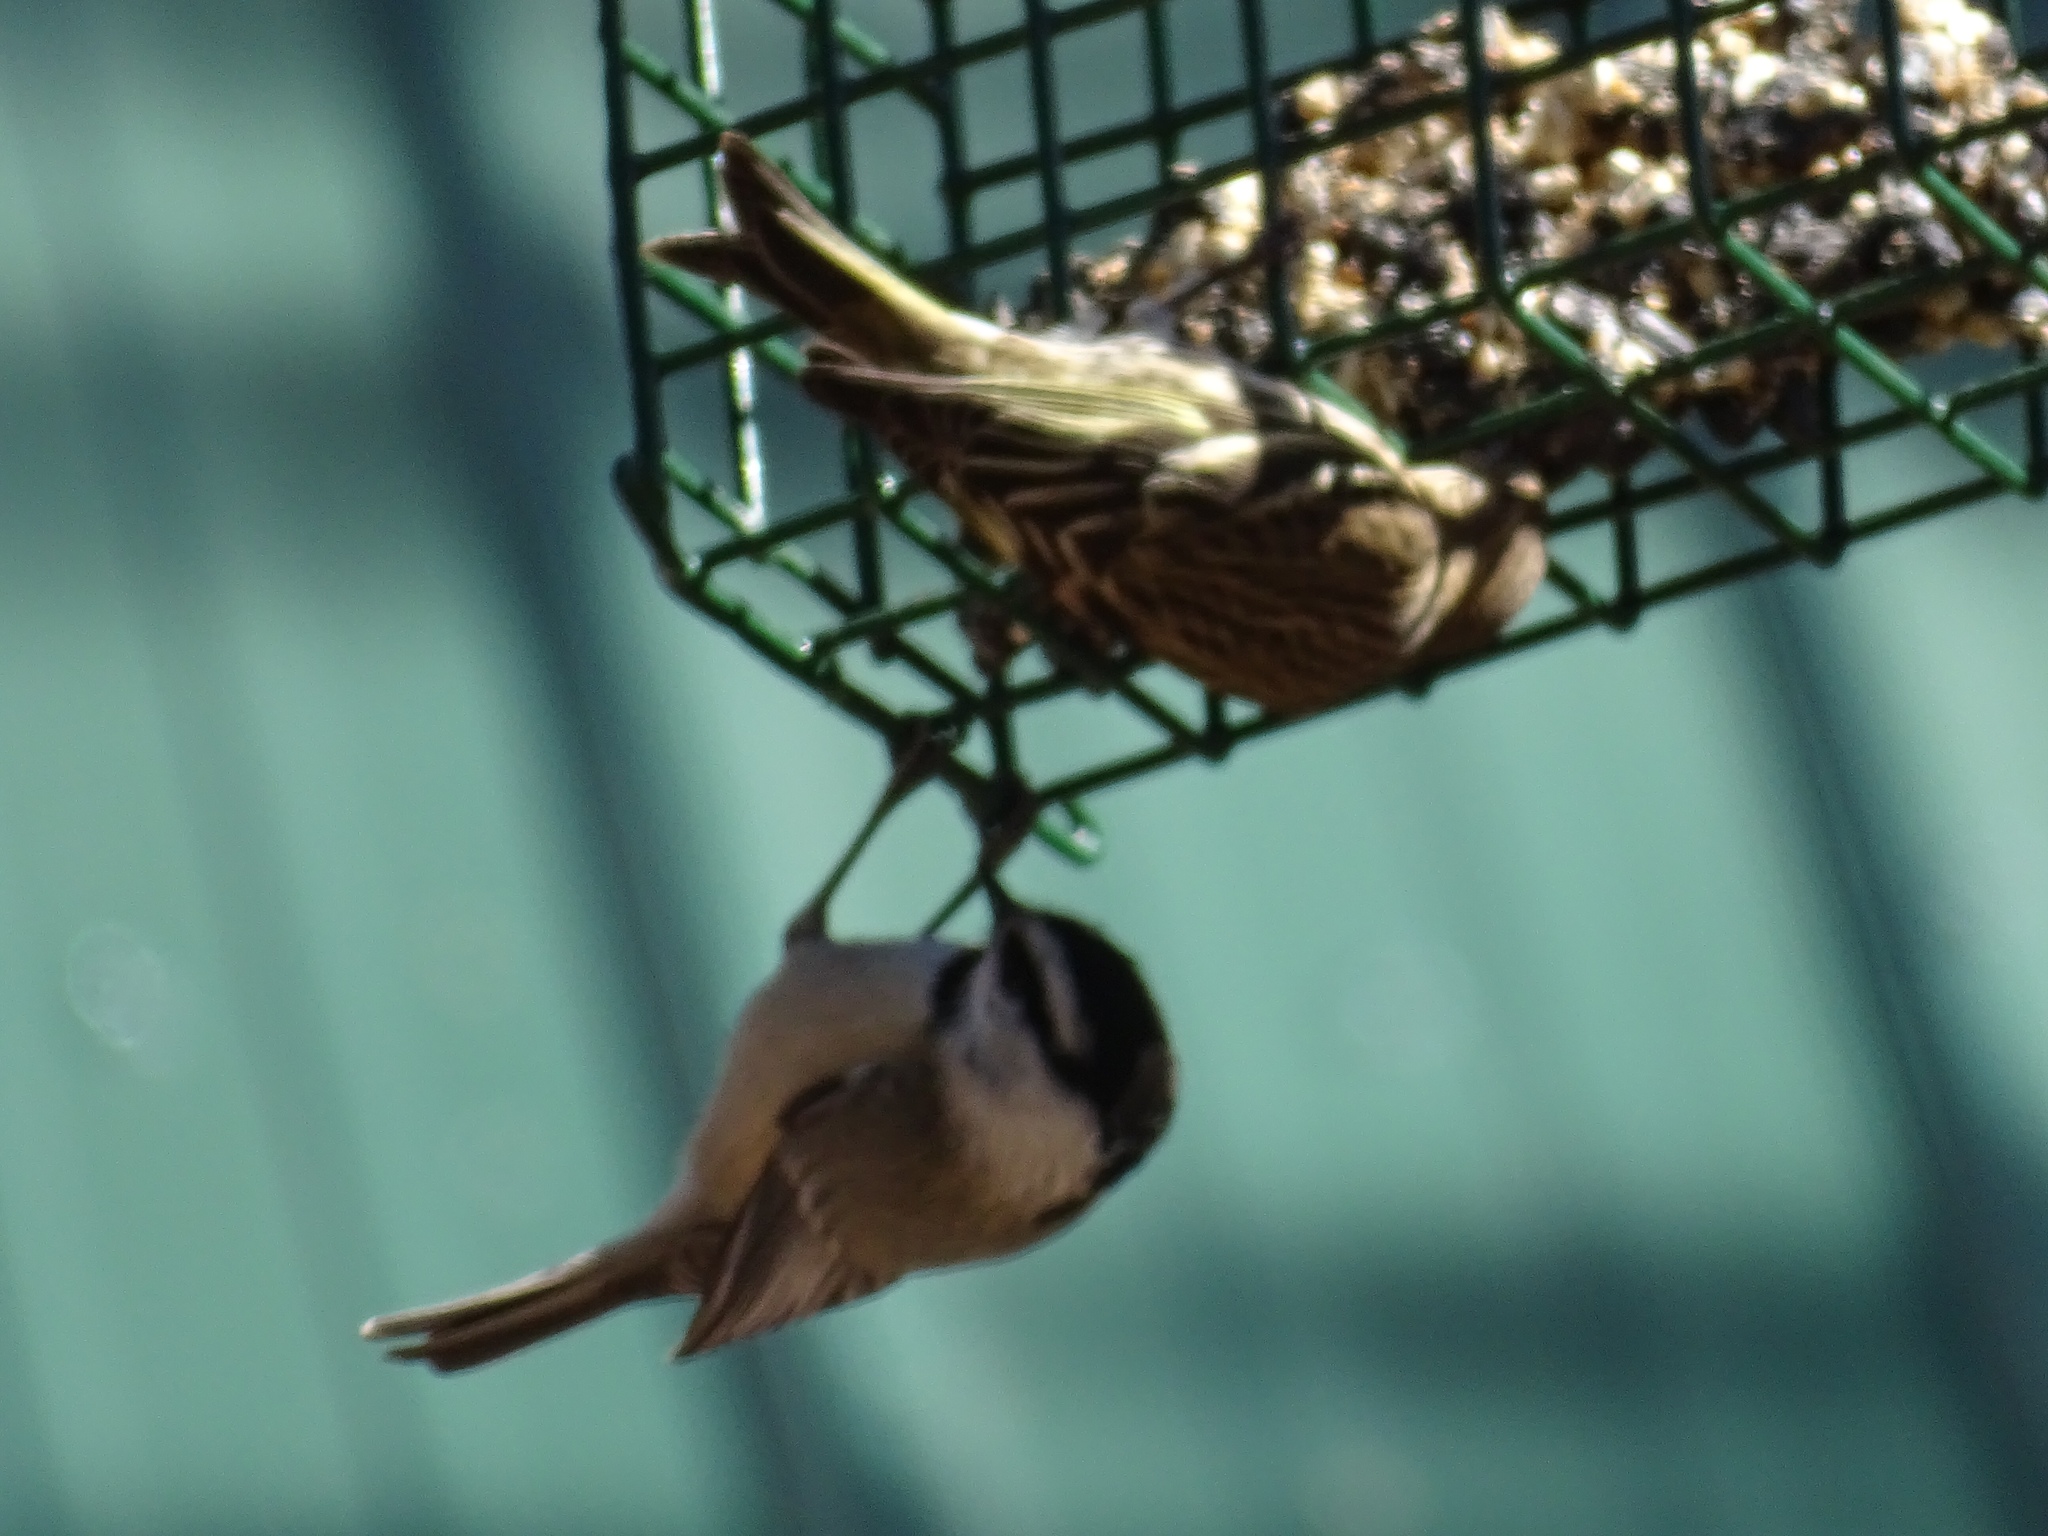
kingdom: Animalia
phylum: Chordata
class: Aves
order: Passeriformes
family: Paridae
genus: Poecile
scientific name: Poecile gambeli
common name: Mountain chickadee
